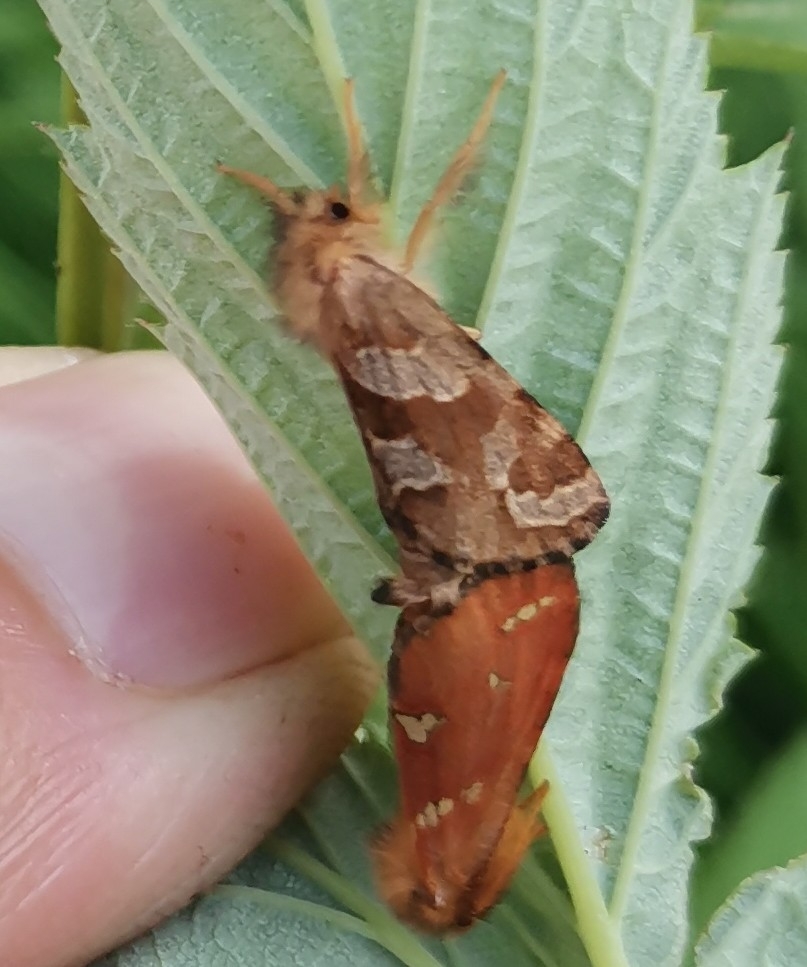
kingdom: Animalia
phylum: Arthropoda
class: Insecta
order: Lepidoptera
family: Hepialidae
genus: Phymatopus
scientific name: Phymatopus hecta
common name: Gold swift
